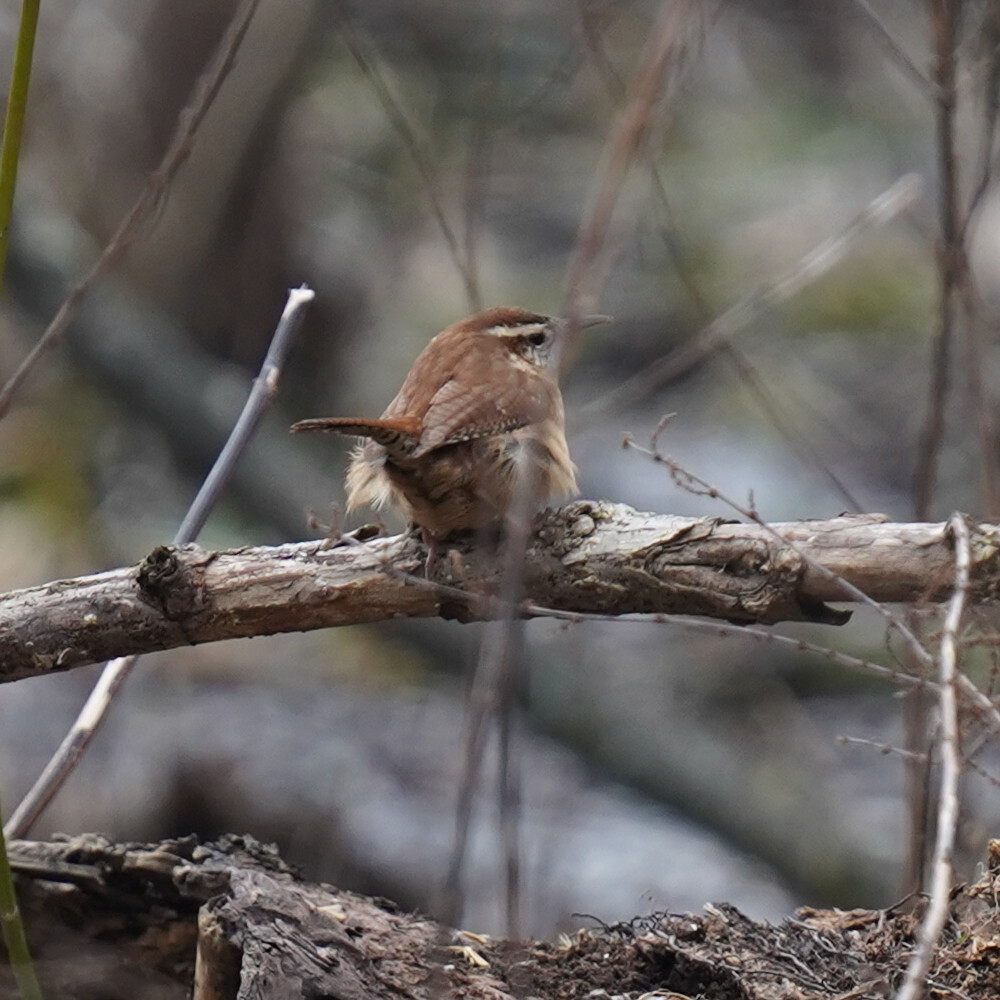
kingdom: Animalia
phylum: Chordata
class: Aves
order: Passeriformes
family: Troglodytidae
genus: Thryothorus
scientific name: Thryothorus ludovicianus
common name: Carolina wren
